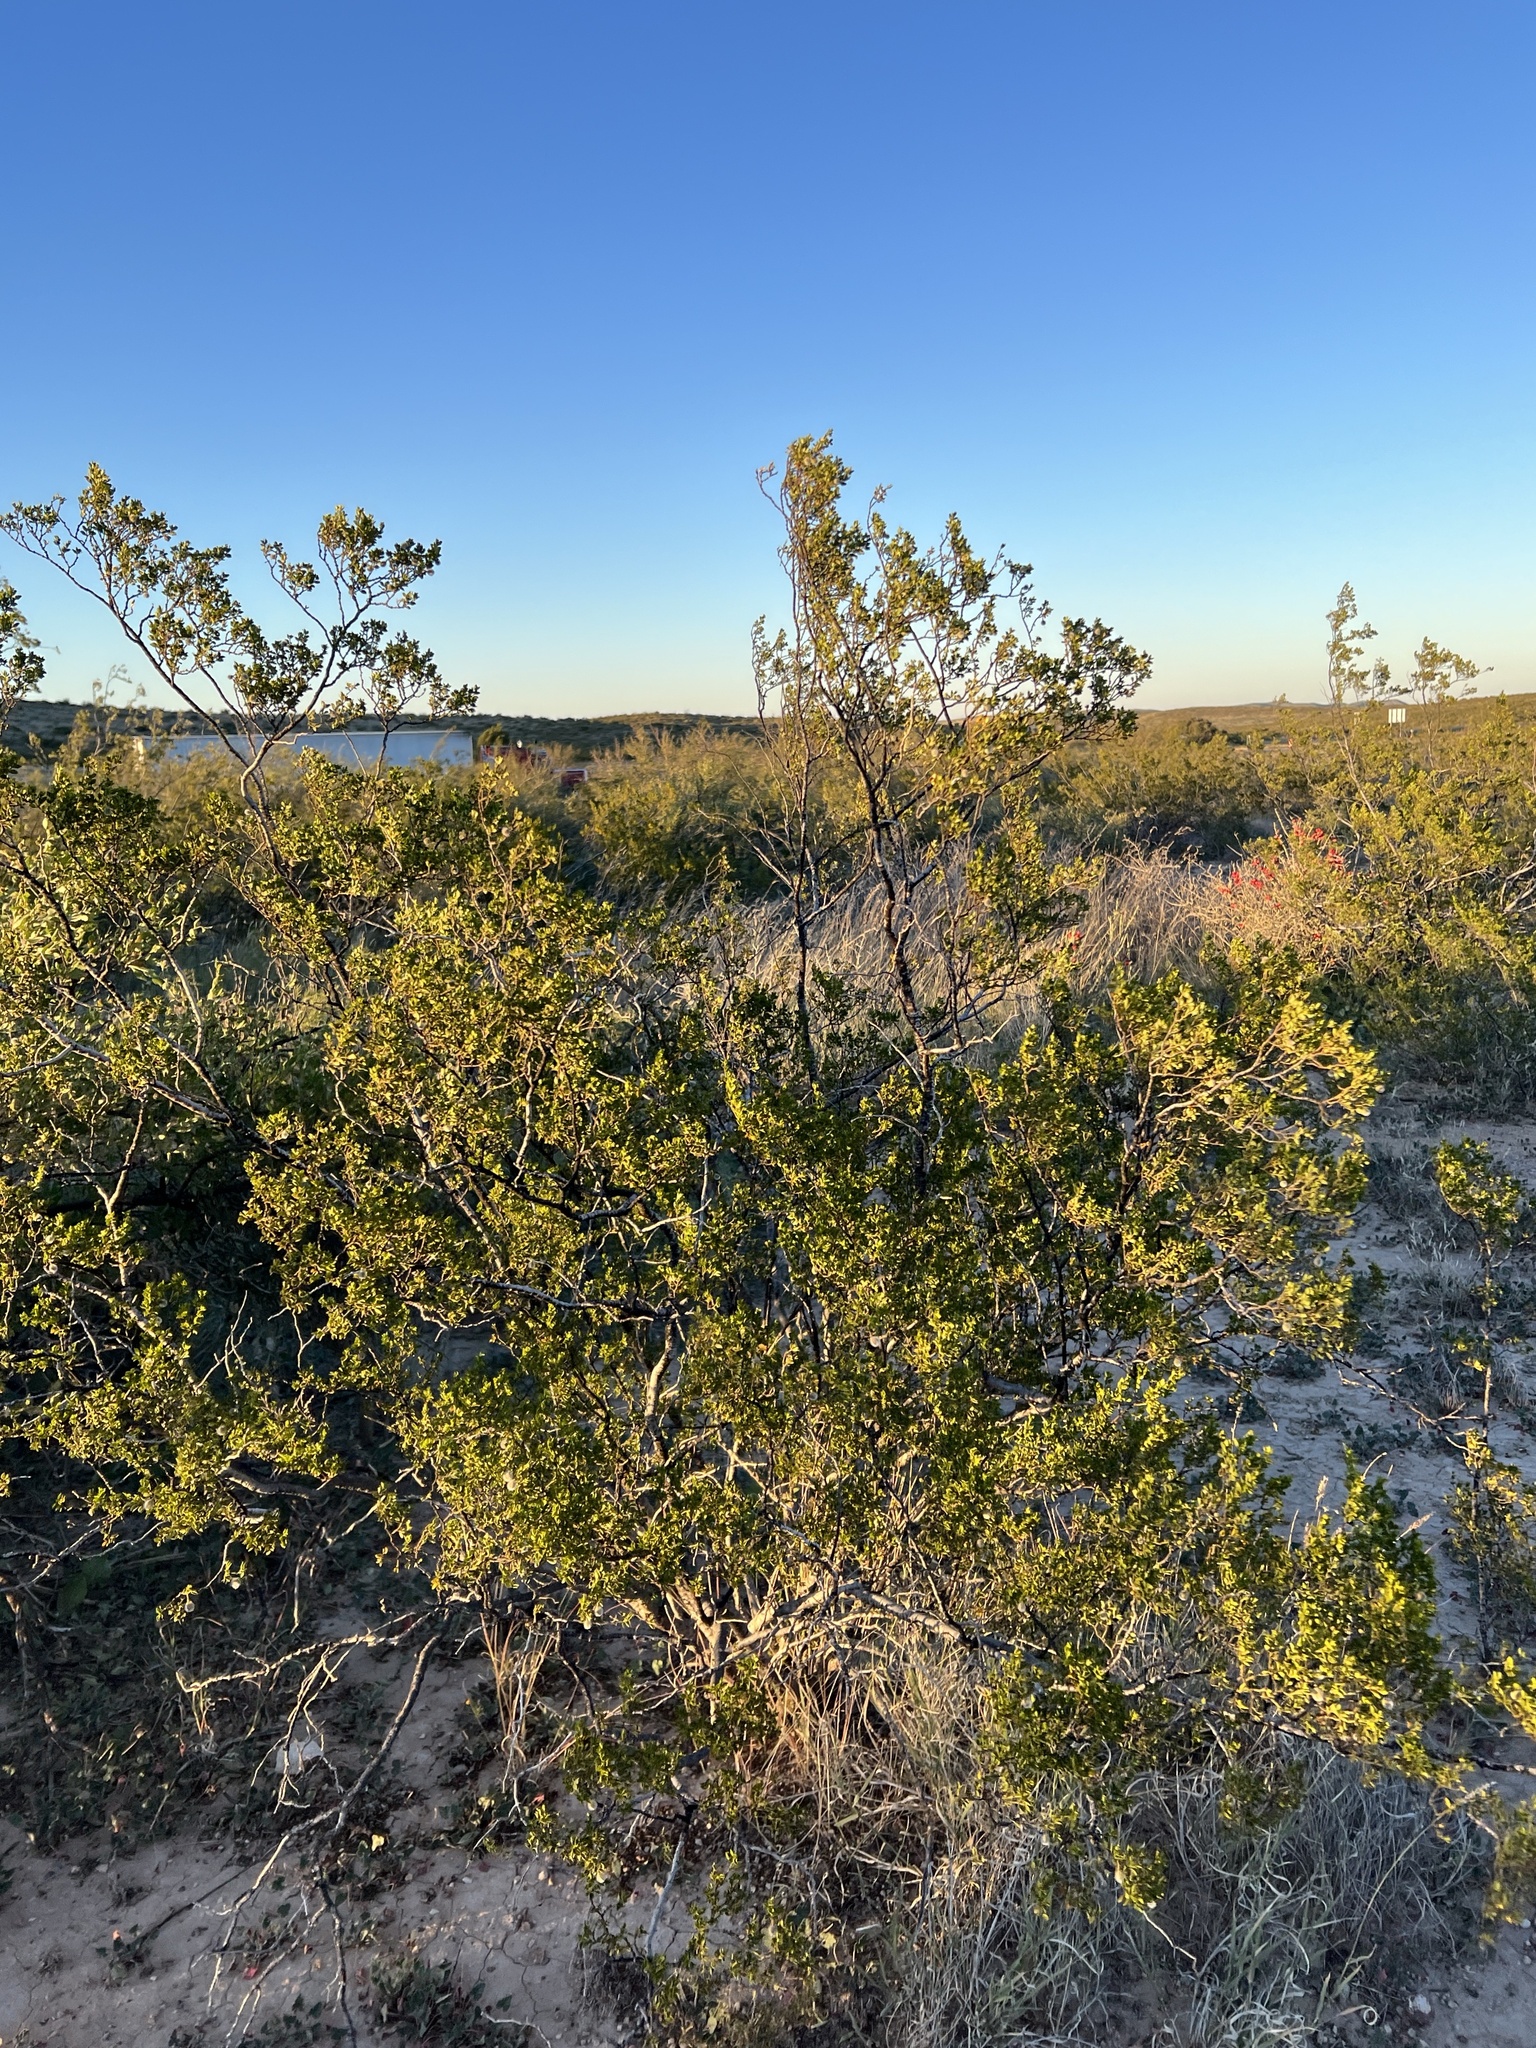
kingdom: Plantae
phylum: Tracheophyta
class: Magnoliopsida
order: Zygophyllales
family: Zygophyllaceae
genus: Larrea
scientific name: Larrea tridentata
